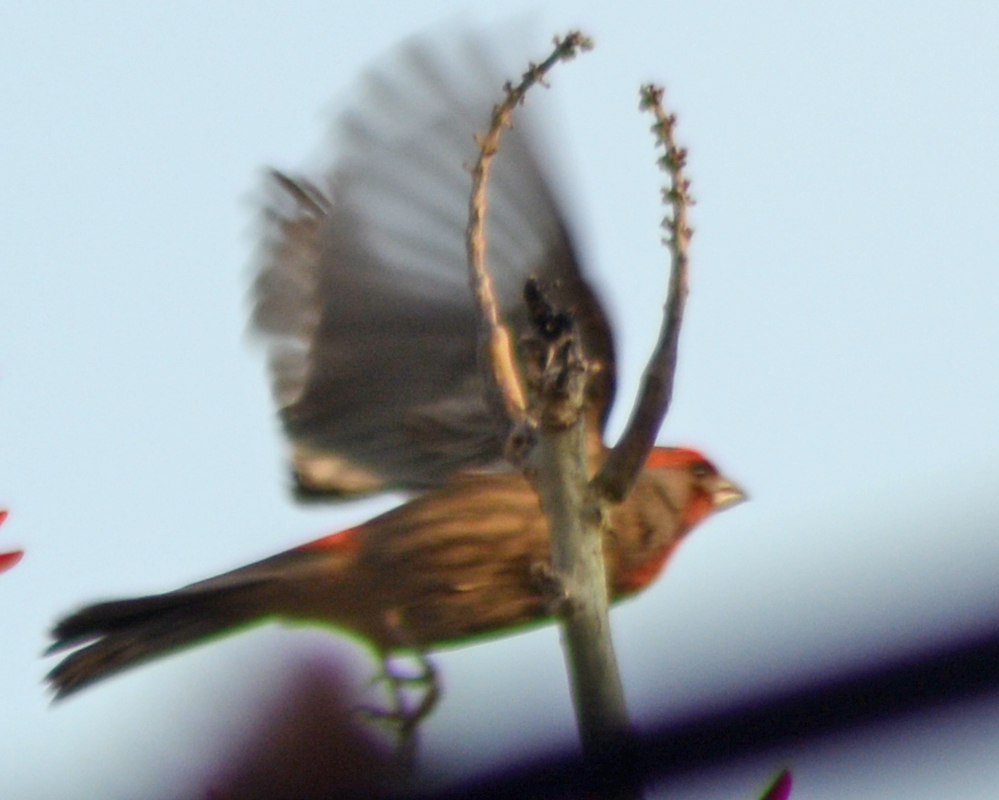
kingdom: Animalia
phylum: Chordata
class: Aves
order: Passeriformes
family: Fringillidae
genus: Haemorhous
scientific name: Haemorhous mexicanus
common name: House finch
